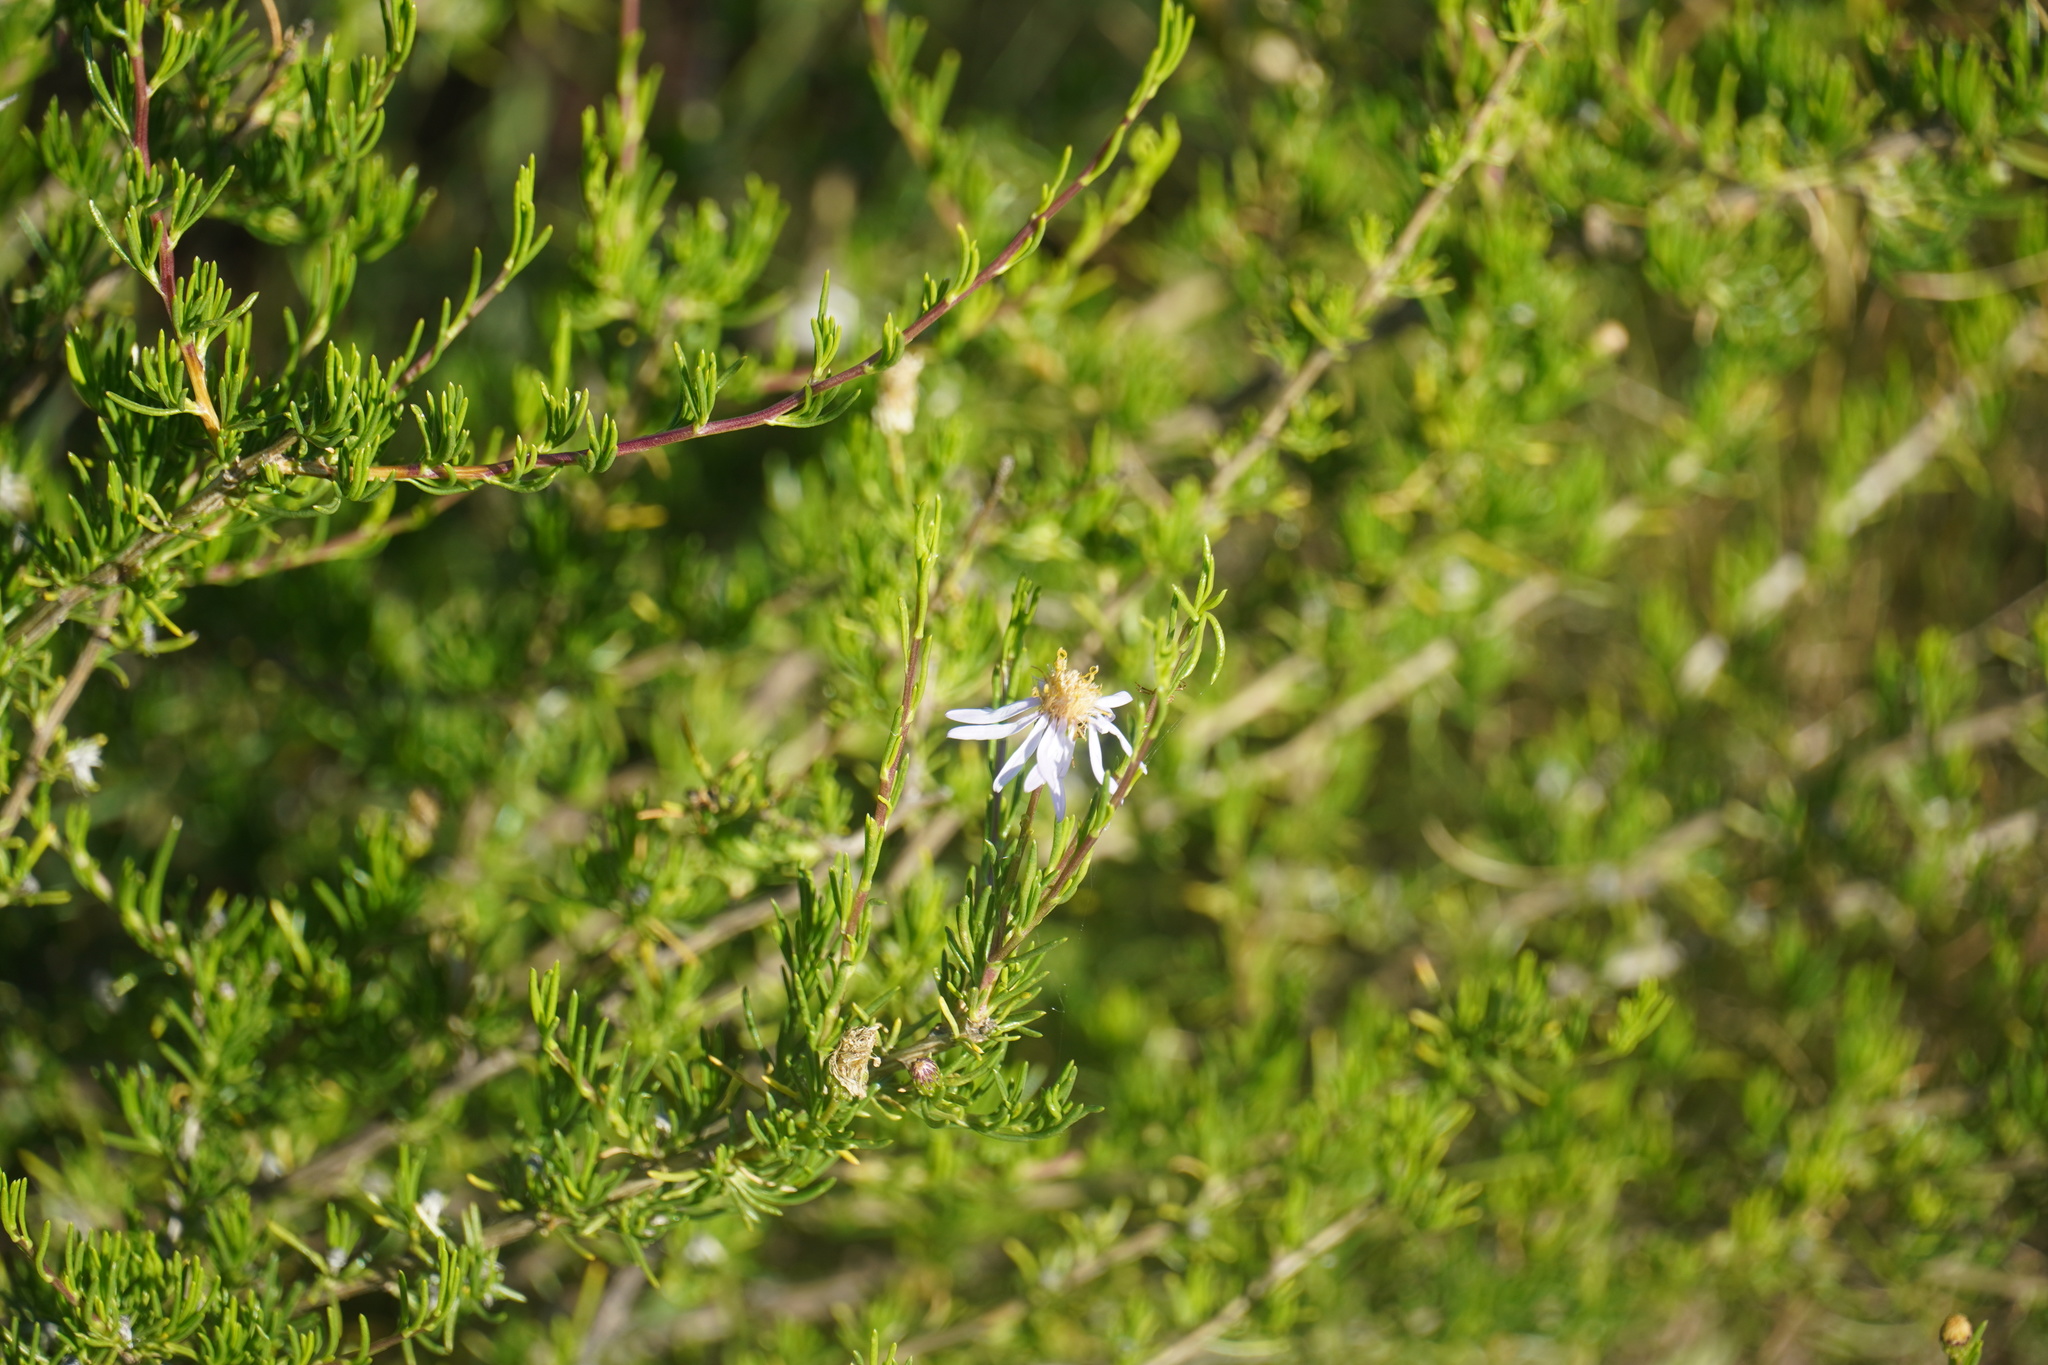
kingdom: Plantae
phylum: Tracheophyta
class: Magnoliopsida
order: Asterales
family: Asteraceae
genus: Felicia
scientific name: Felicia filifolia
